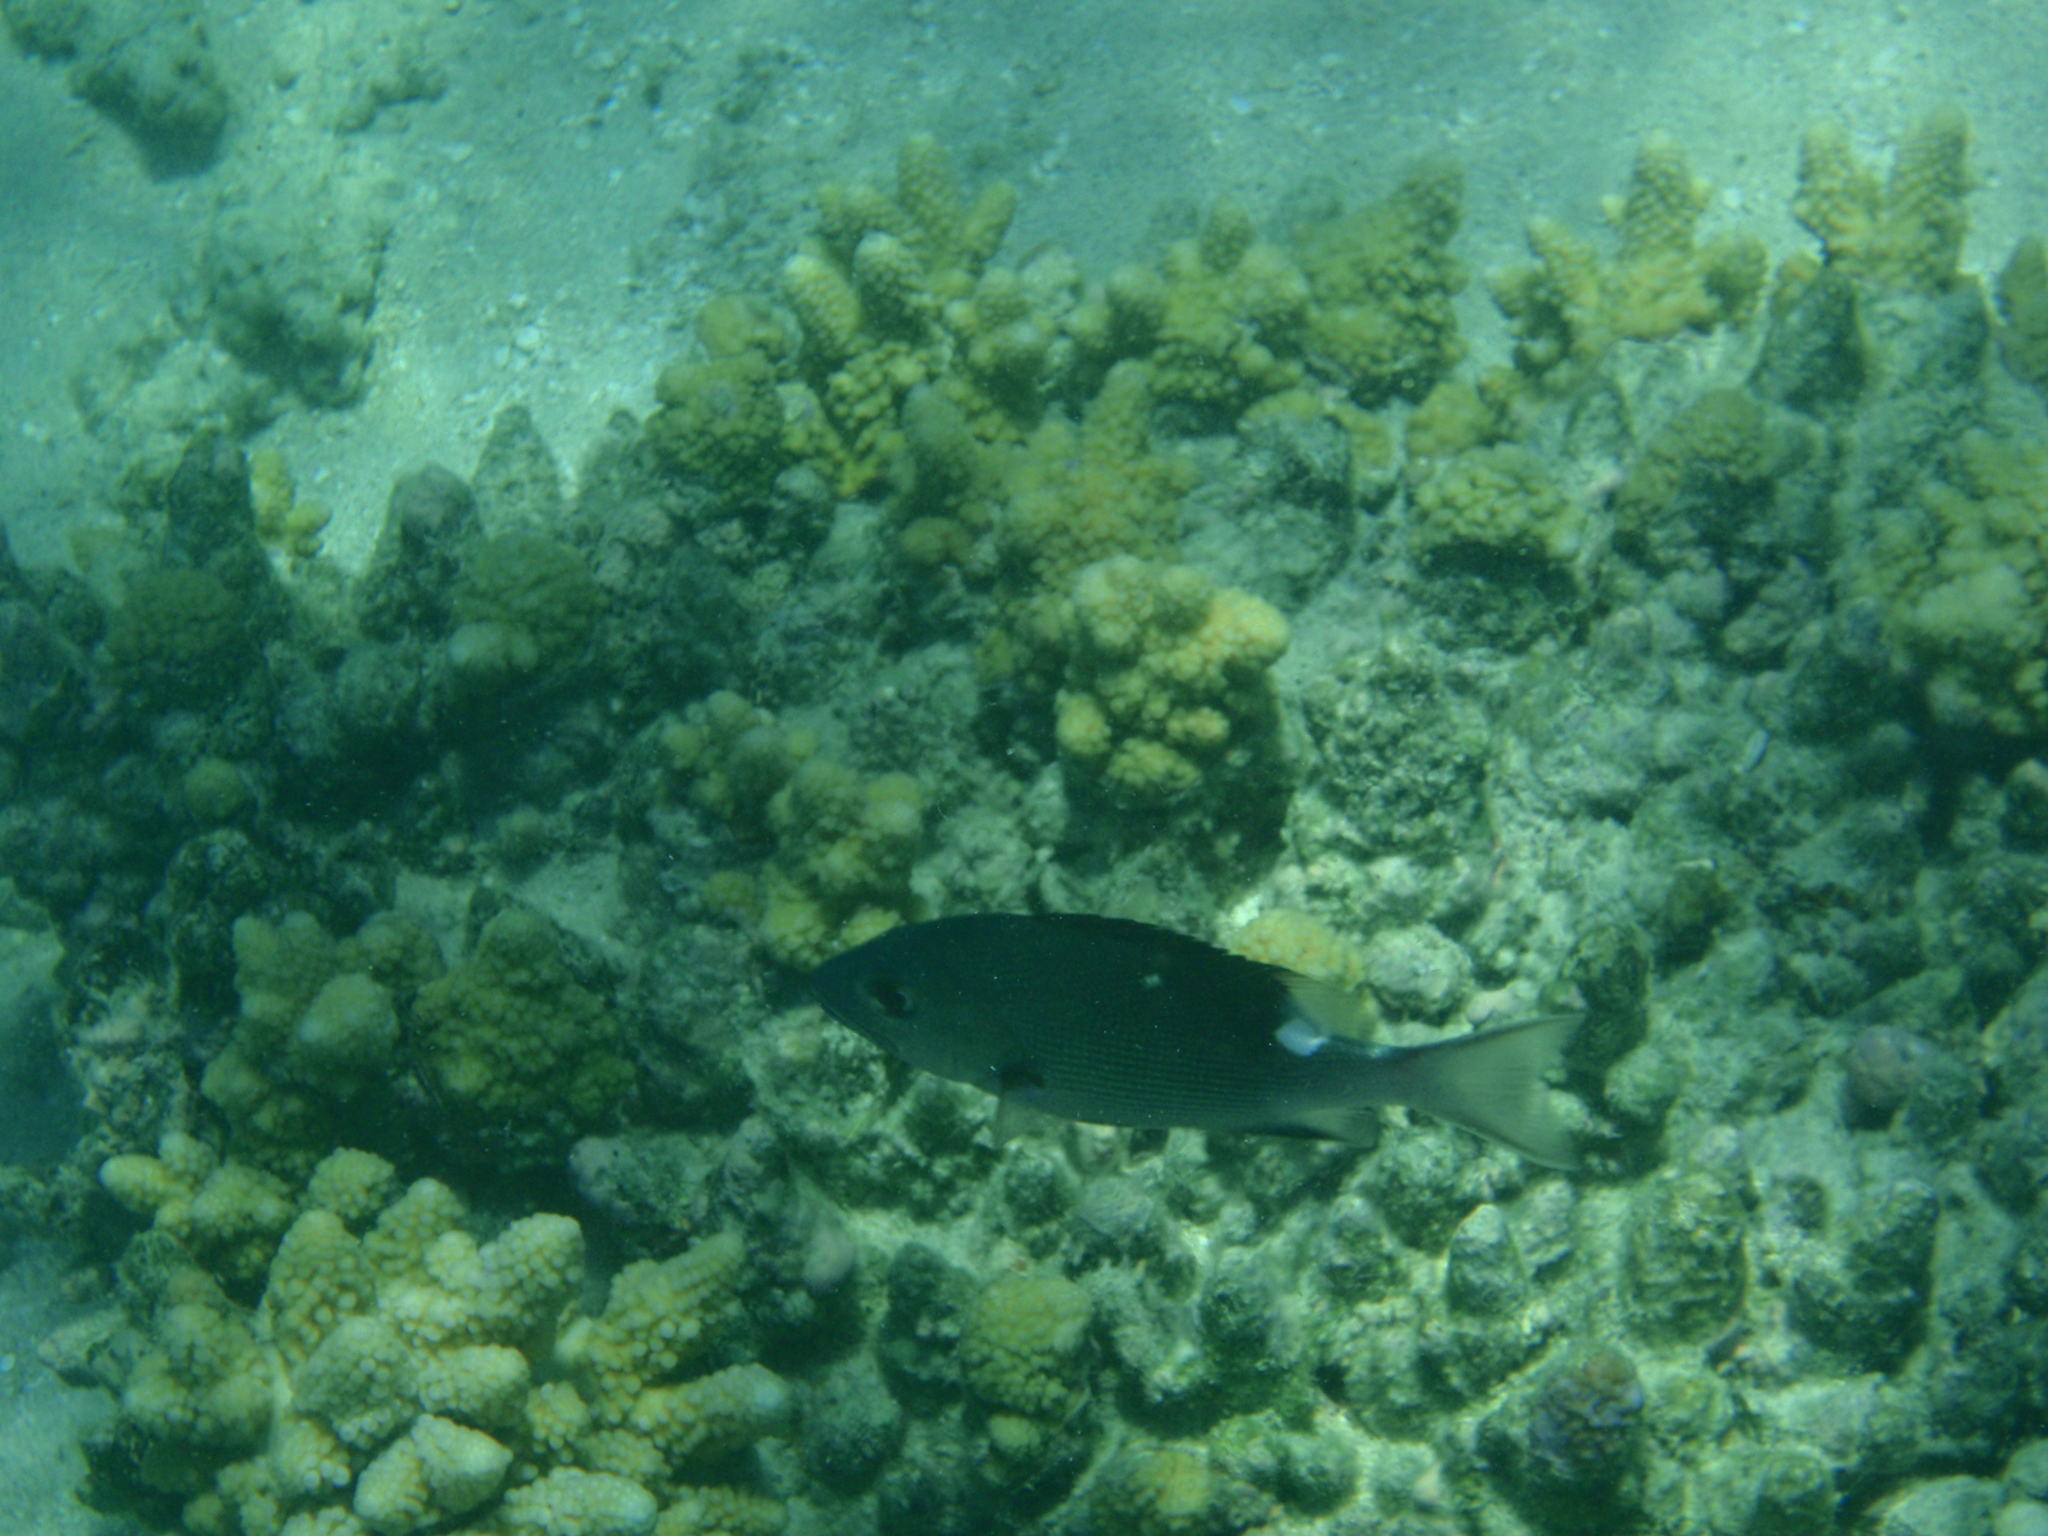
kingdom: Animalia
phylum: Chordata
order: Perciformes
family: Lutjanidae
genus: Lutjanus
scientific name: Lutjanus bohar
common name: Red bass
